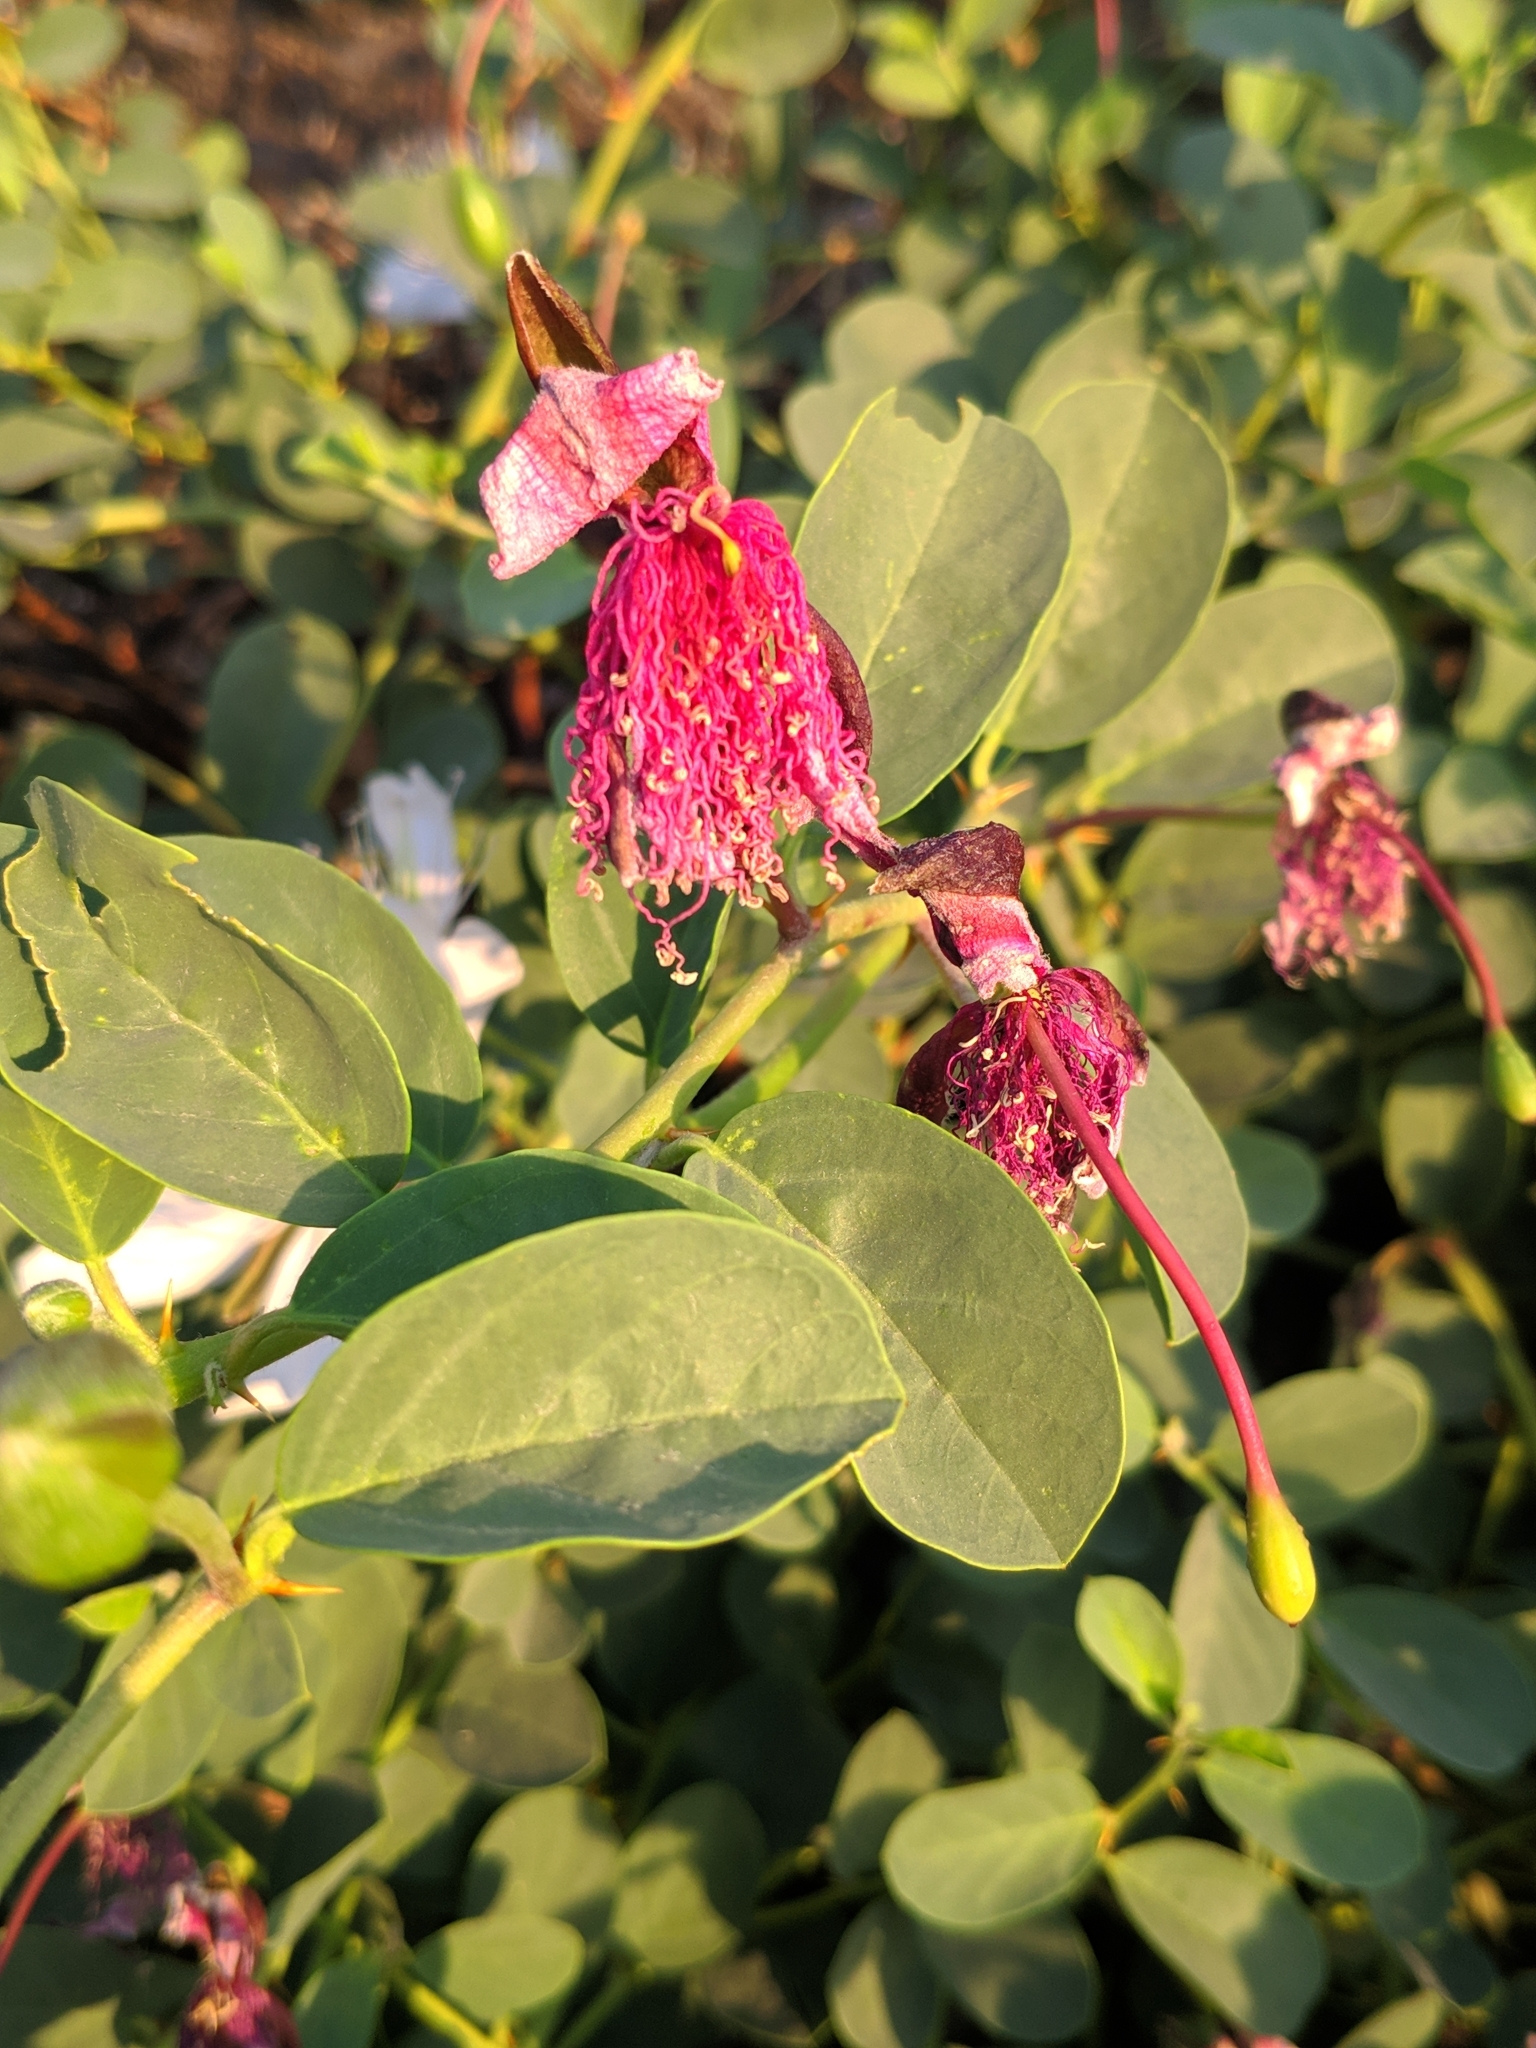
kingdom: Plantae
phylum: Tracheophyta
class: Magnoliopsida
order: Brassicales
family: Capparaceae
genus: Capparis
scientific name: Capparis spinosa
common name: Caper
